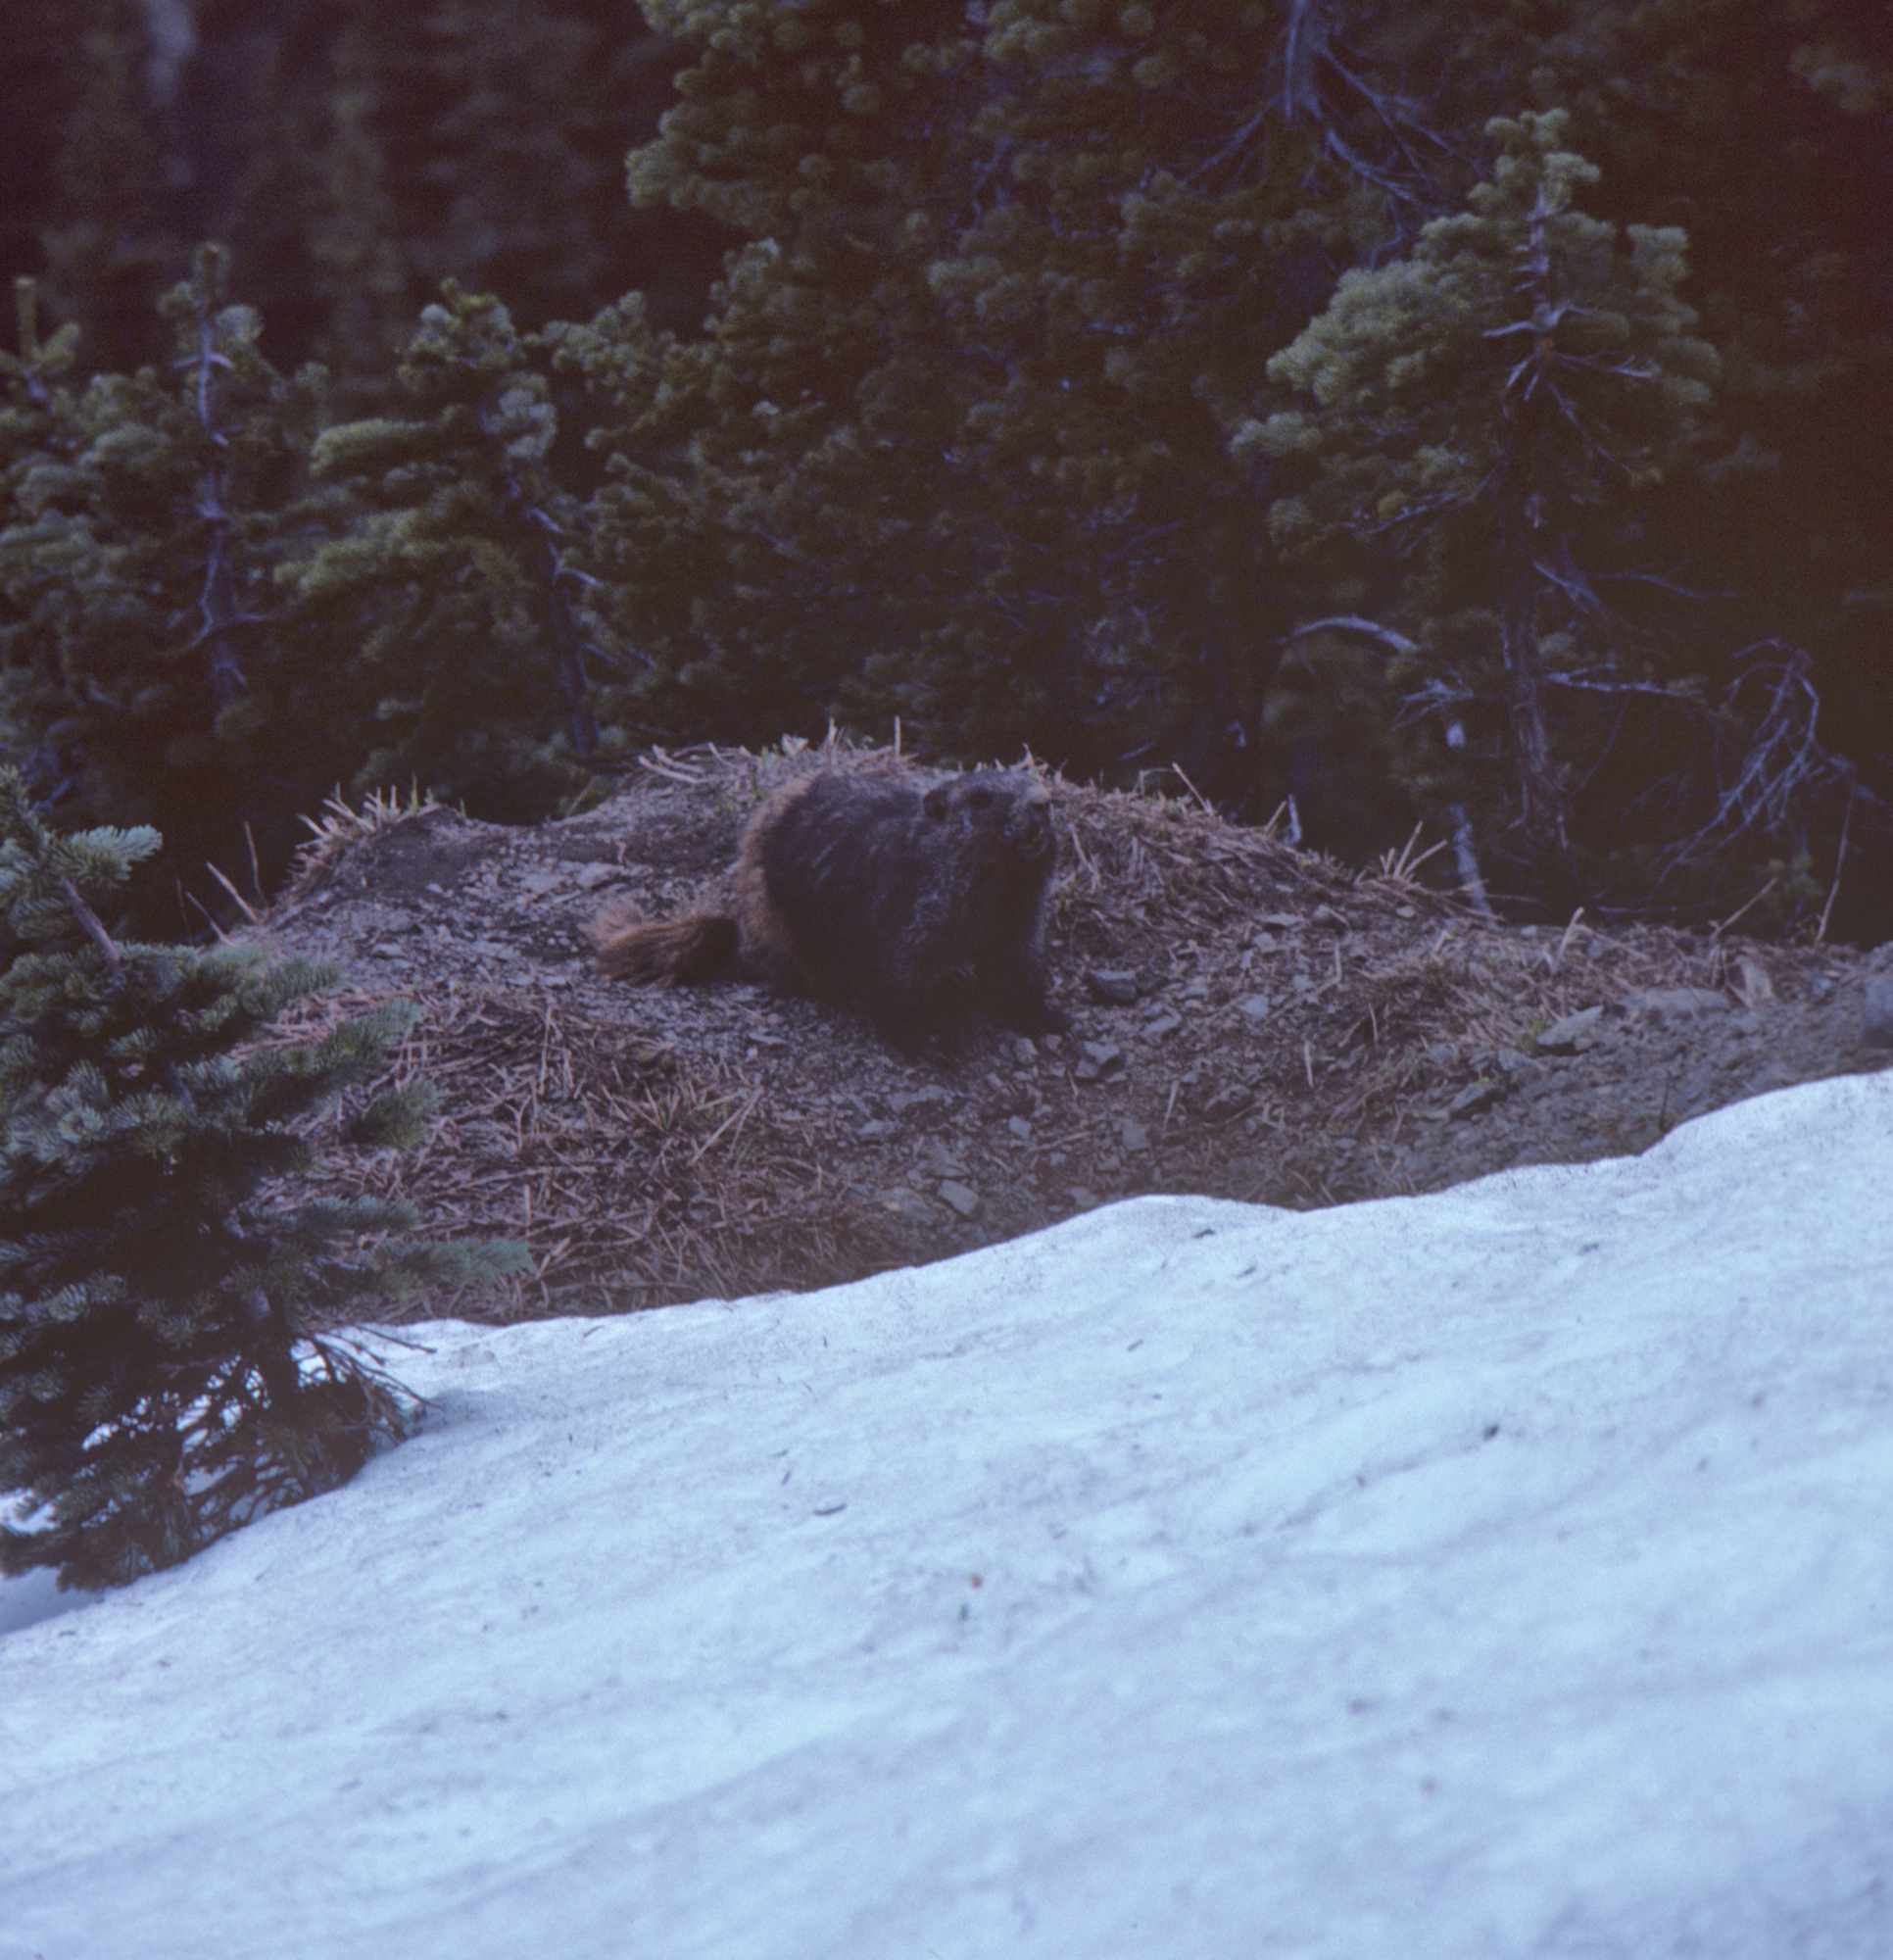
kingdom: Animalia
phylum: Chordata
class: Mammalia
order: Rodentia
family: Sciuridae
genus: Marmota
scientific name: Marmota olympus
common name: Olympic marmot
